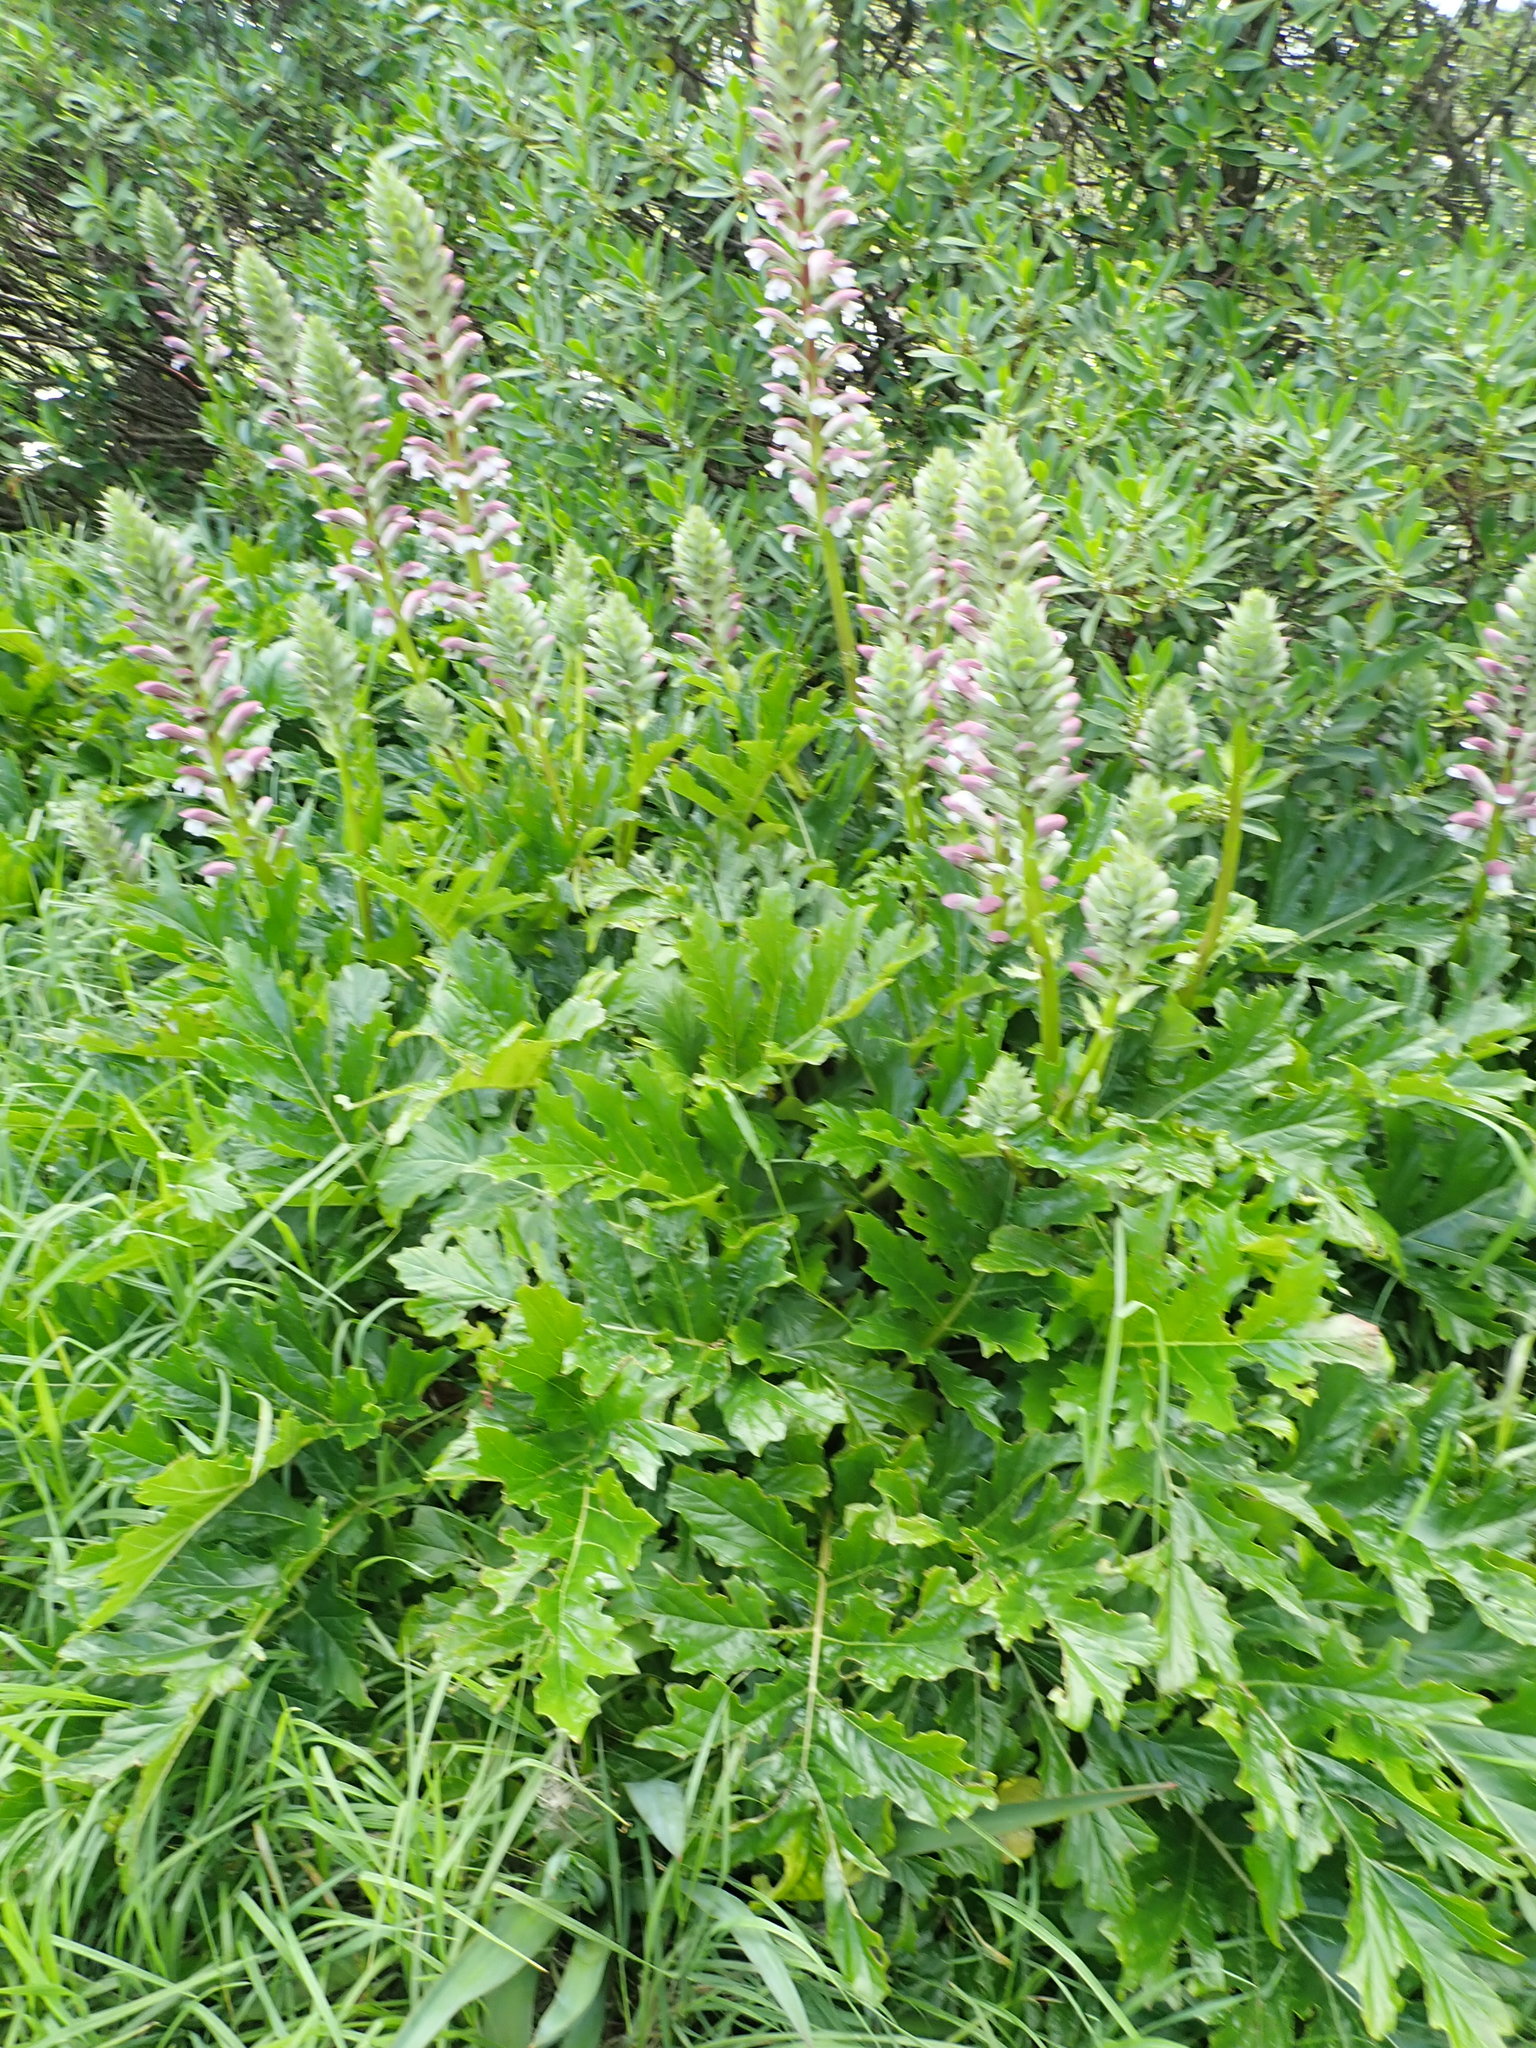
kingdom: Plantae
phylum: Tracheophyta
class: Magnoliopsida
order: Lamiales
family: Acanthaceae
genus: Acanthus
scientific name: Acanthus mollis
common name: Bear's-breech
